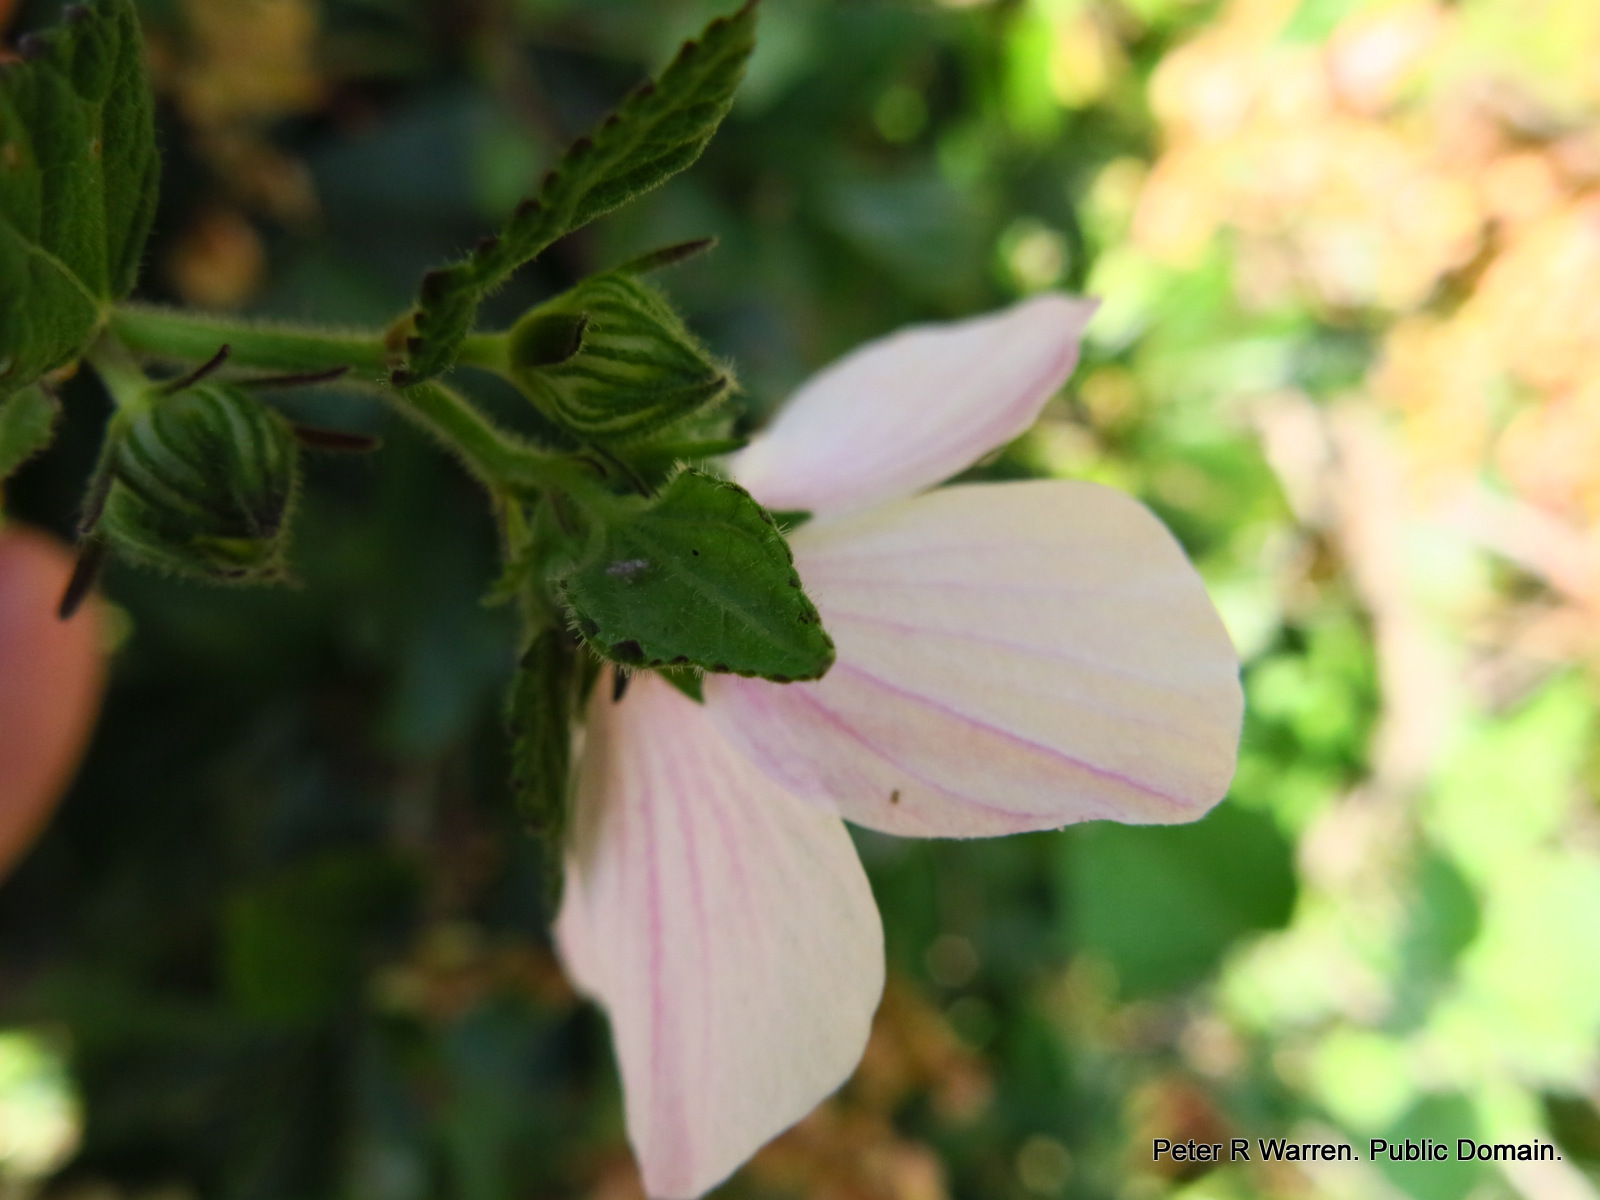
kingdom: Plantae
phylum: Tracheophyta
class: Magnoliopsida
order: Malvales
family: Malvaceae
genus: Pavonia
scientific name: Pavonia columella
